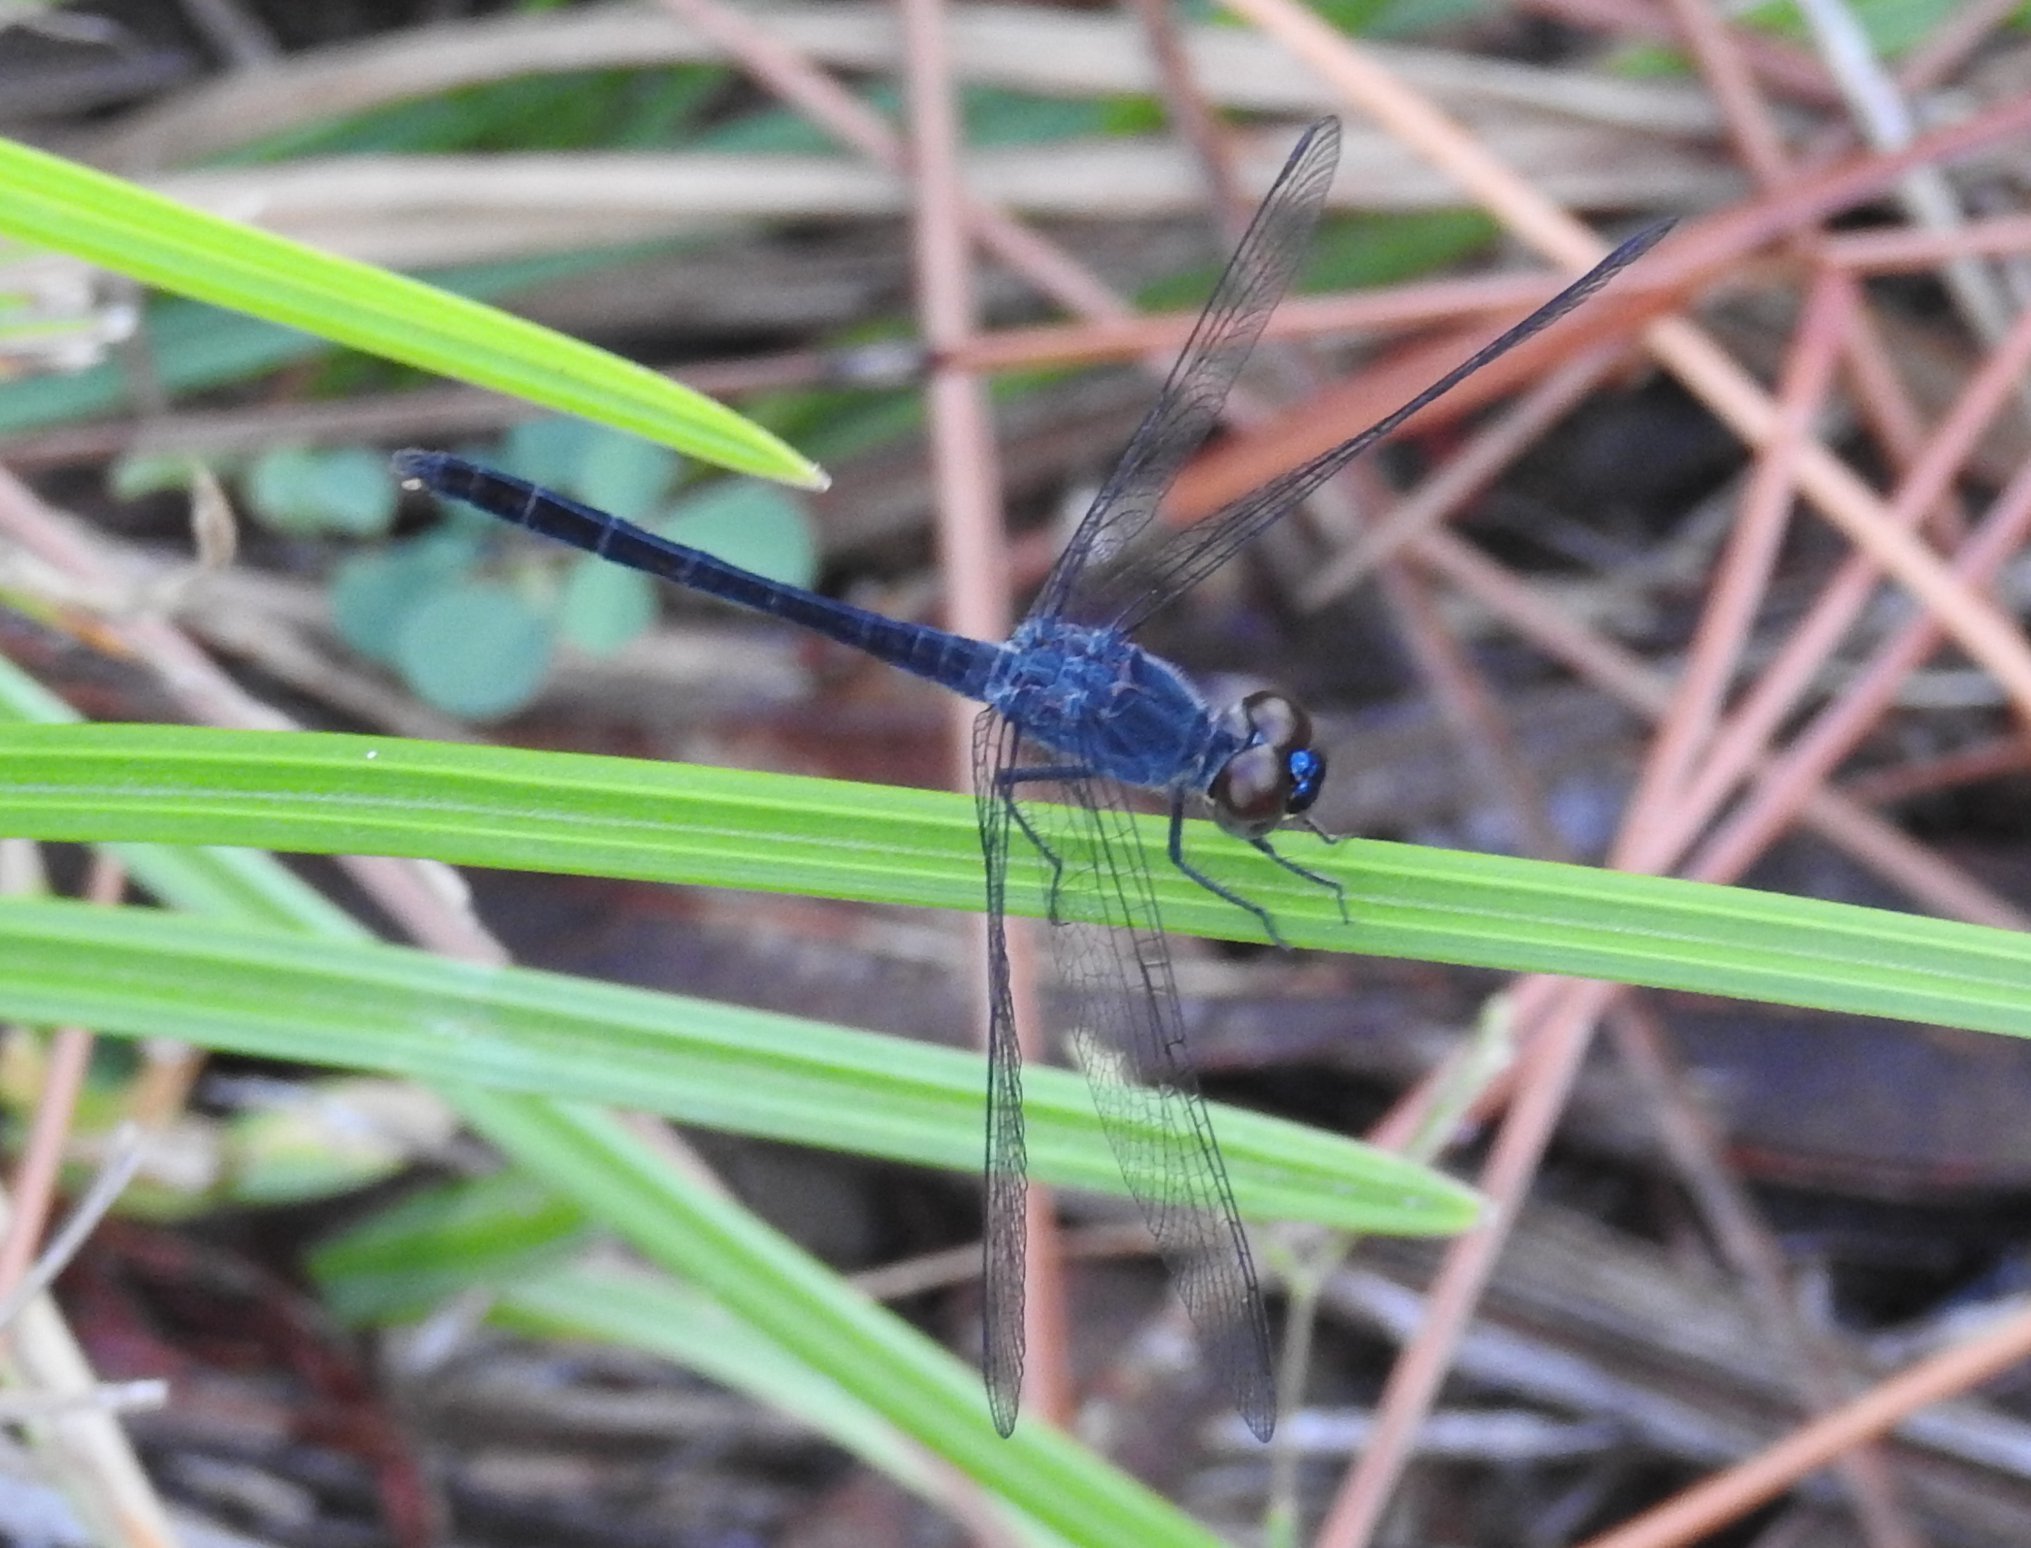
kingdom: Animalia
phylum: Arthropoda
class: Insecta
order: Odonata
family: Libellulidae
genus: Erythrodiplax
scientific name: Erythrodiplax berenice
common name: Seaside dragonlet
